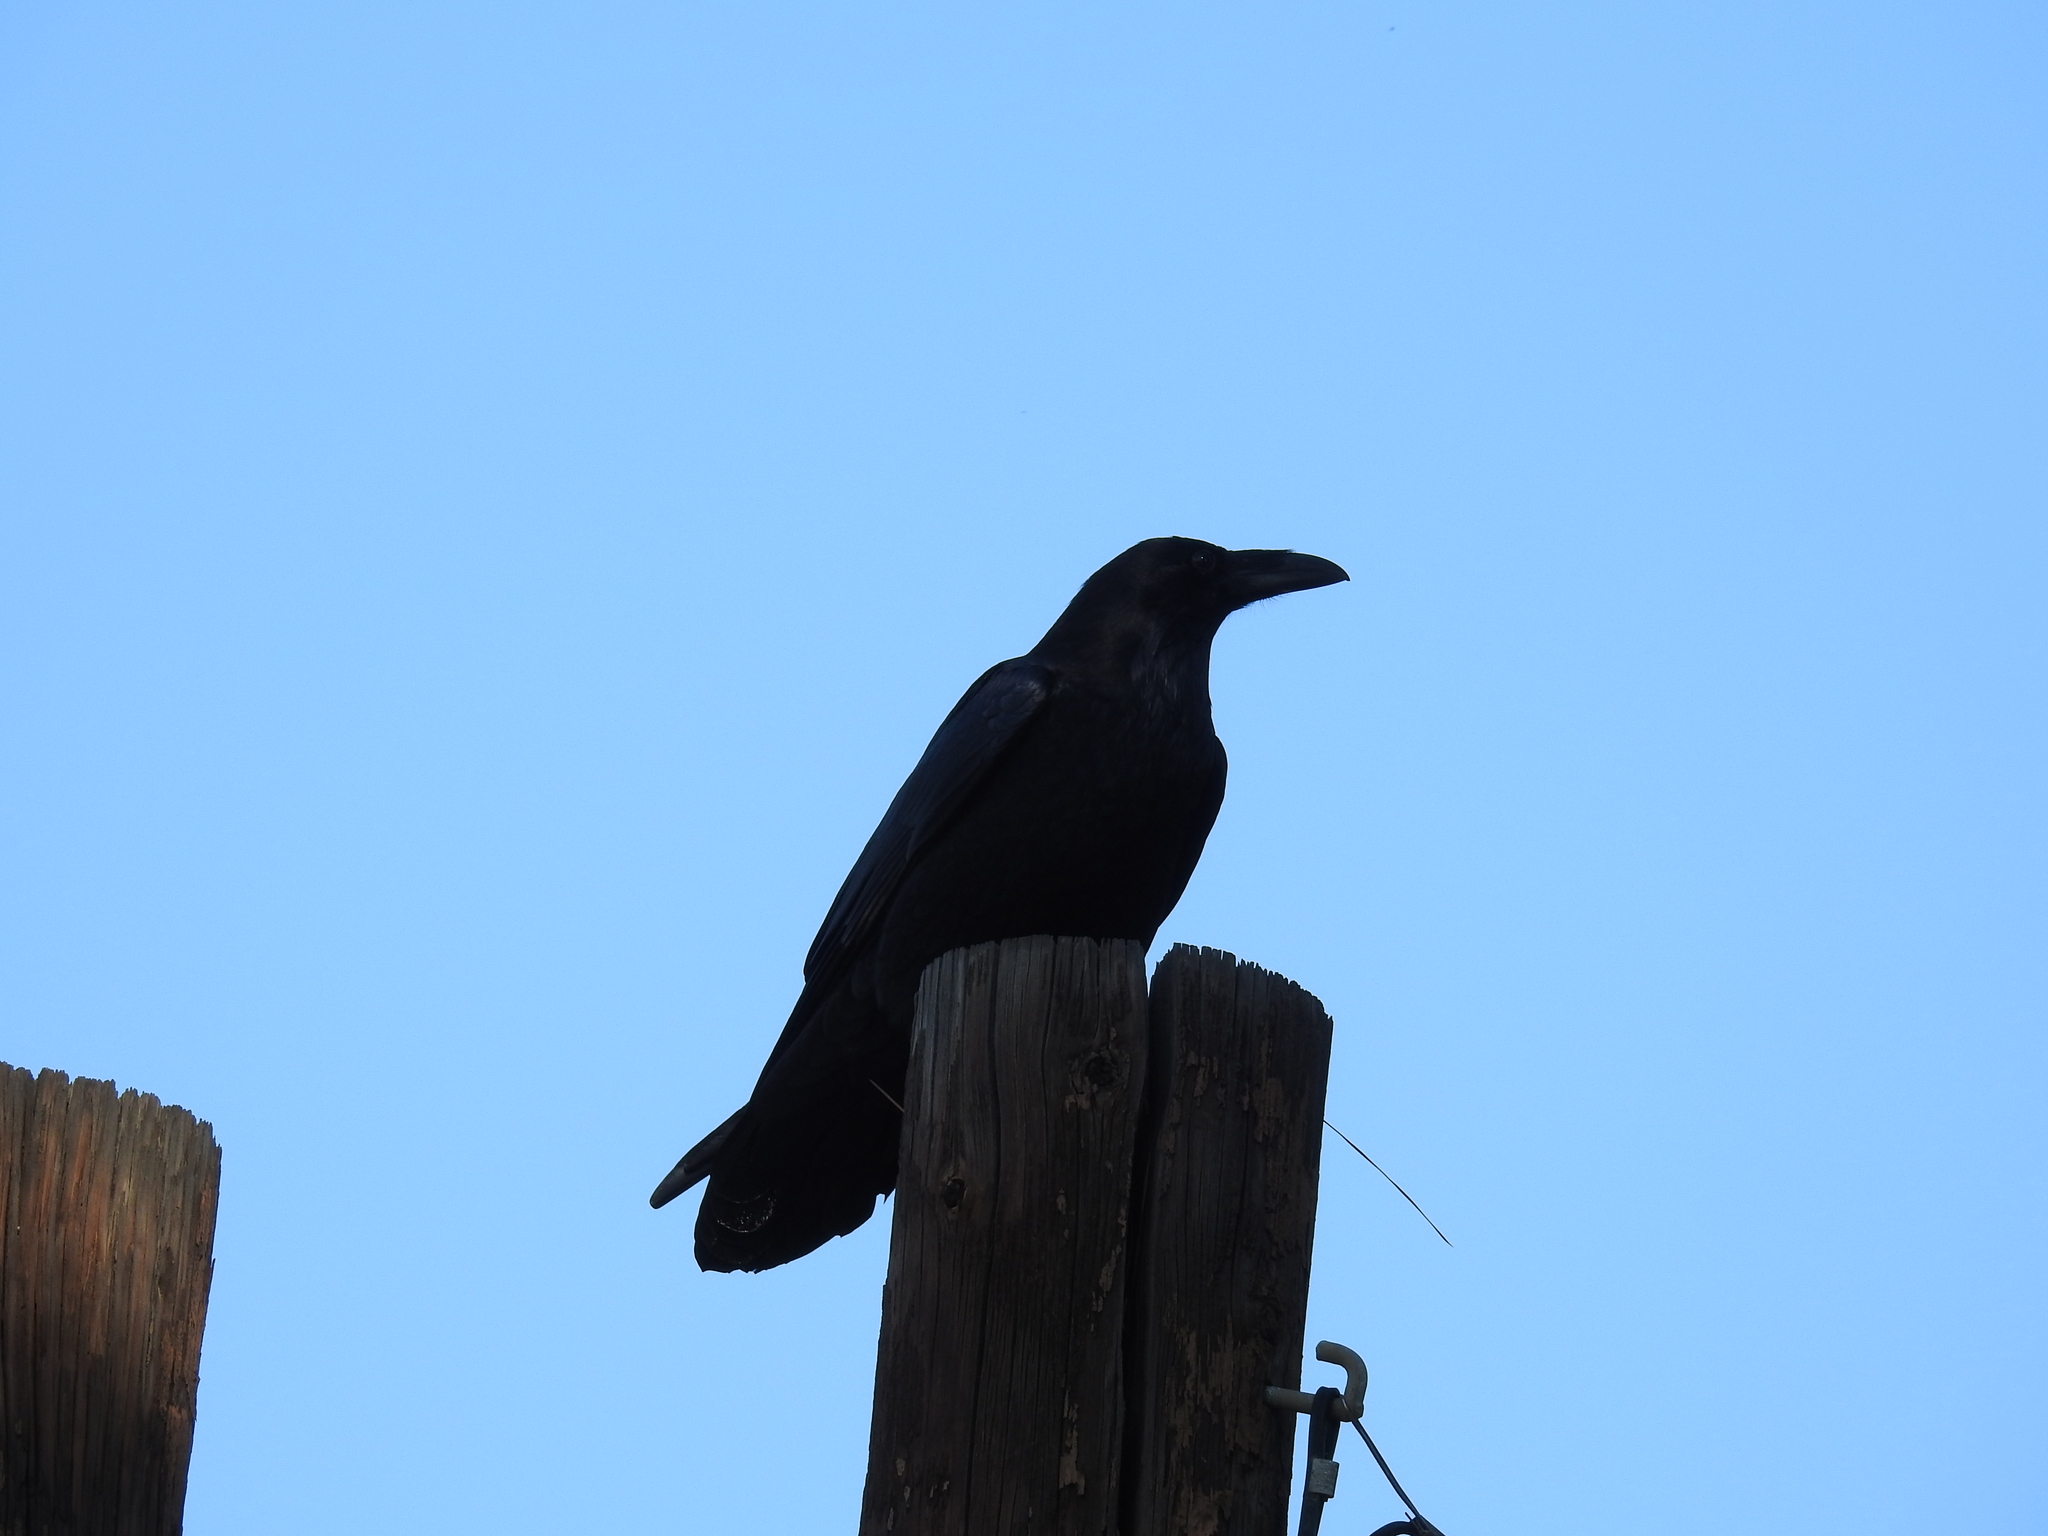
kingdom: Animalia
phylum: Chordata
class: Aves
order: Passeriformes
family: Corvidae
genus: Corvus
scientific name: Corvus corax
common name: Common raven
